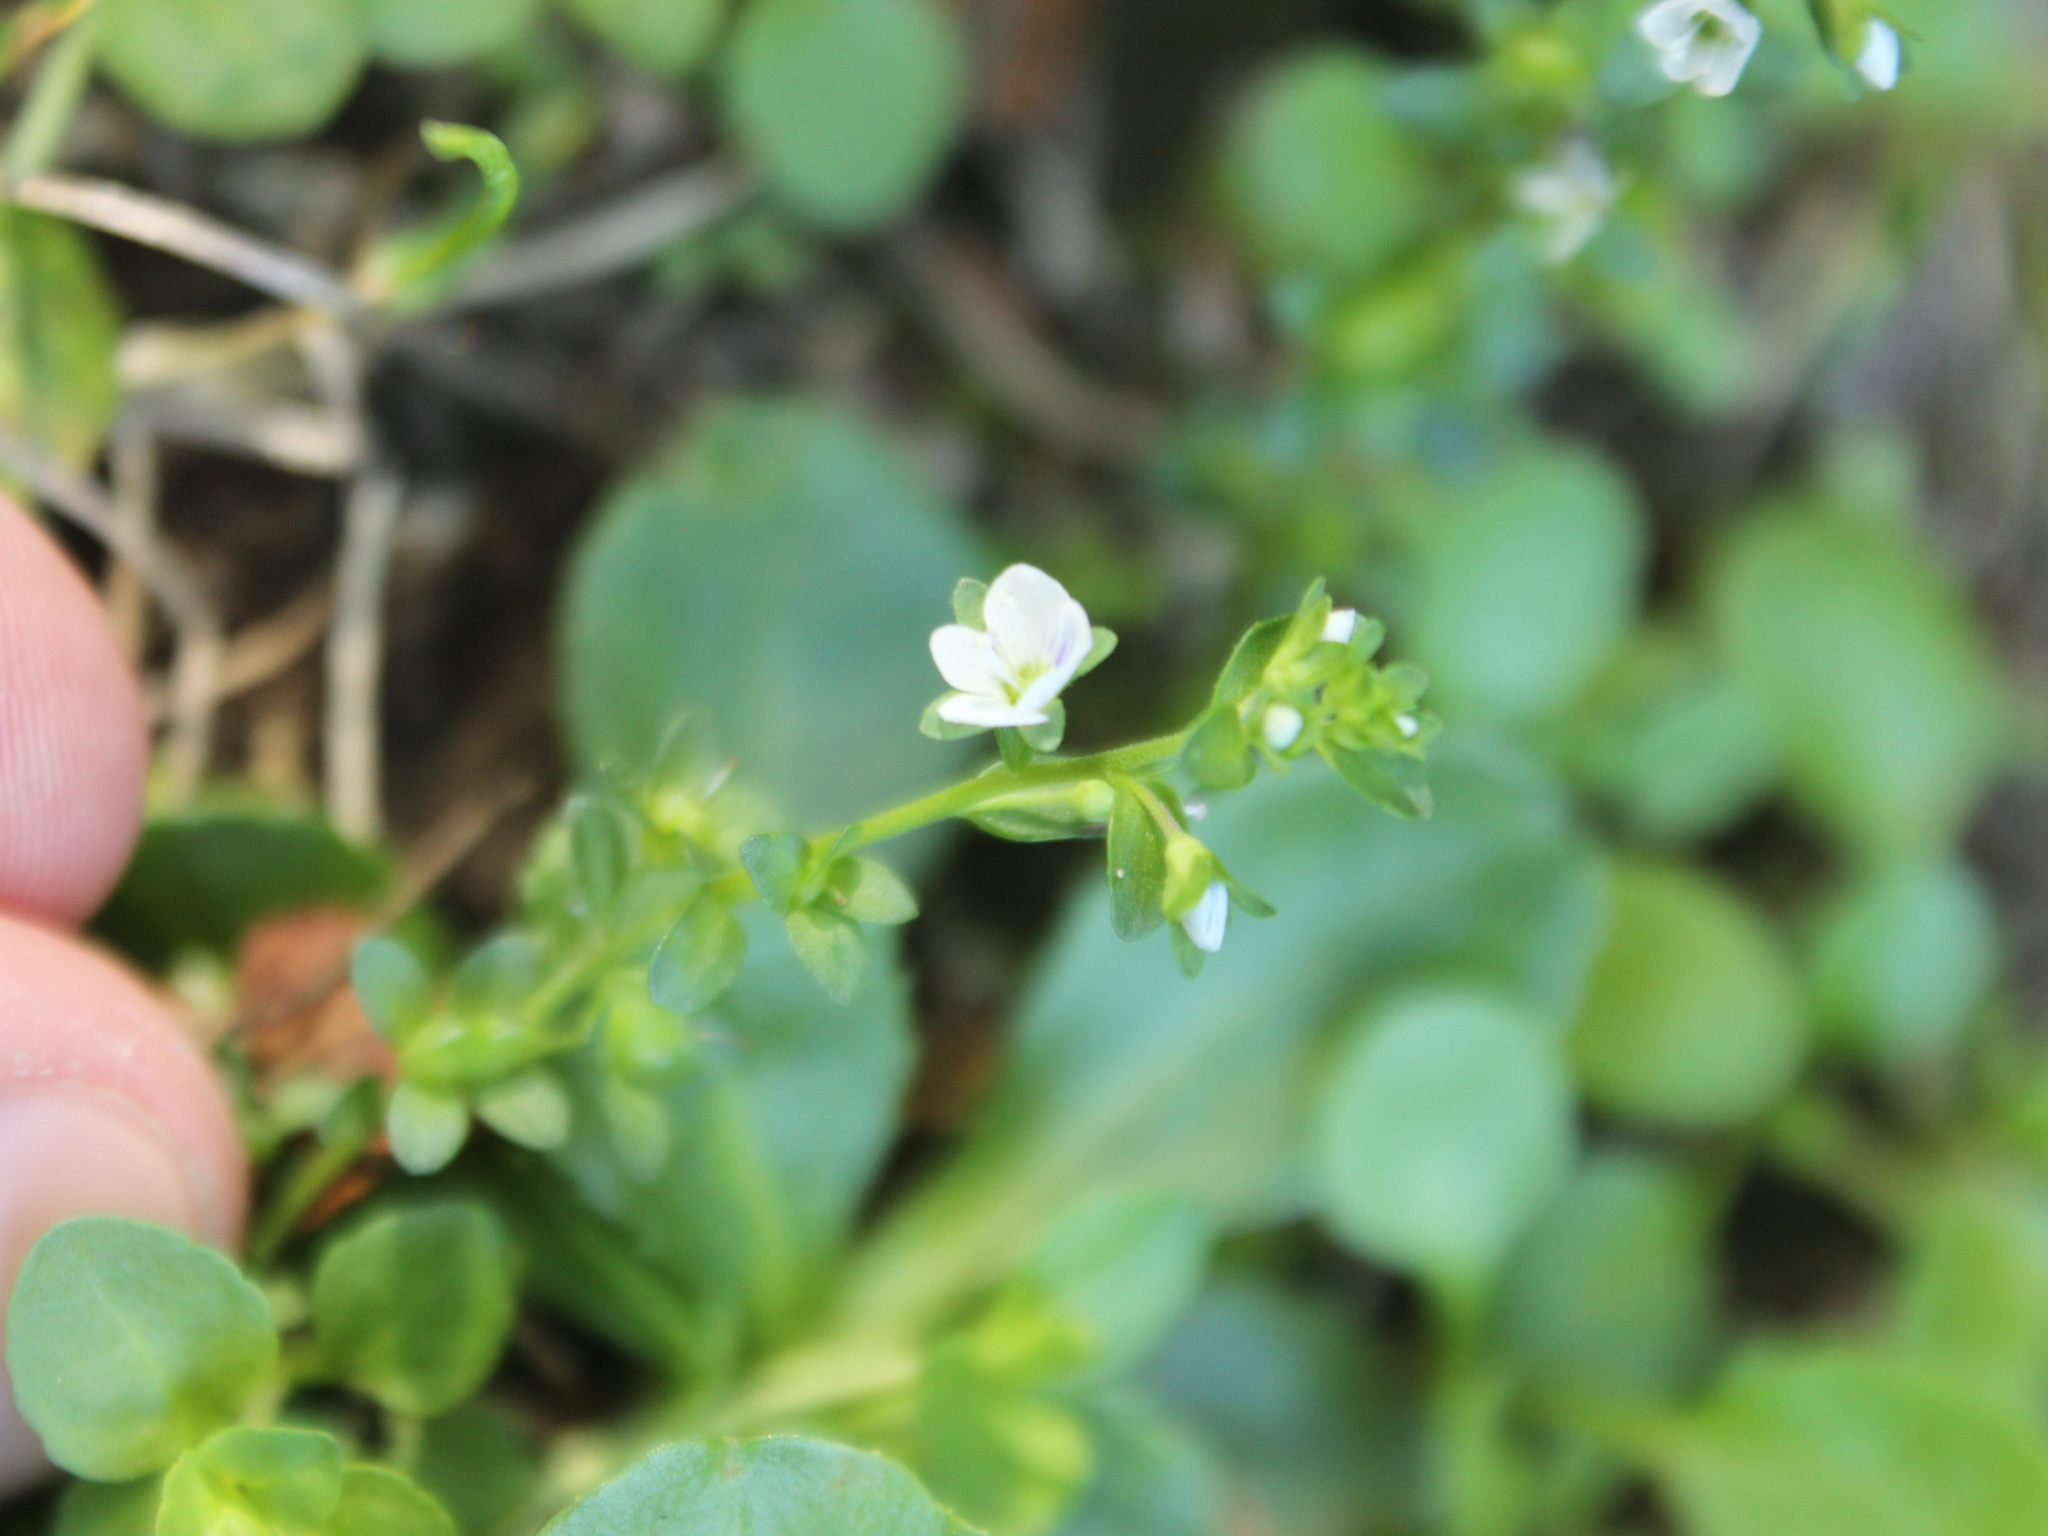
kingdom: Plantae
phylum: Tracheophyta
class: Magnoliopsida
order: Lamiales
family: Plantaginaceae
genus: Veronica
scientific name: Veronica serpyllifolia
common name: Thyme-leaved speedwell
